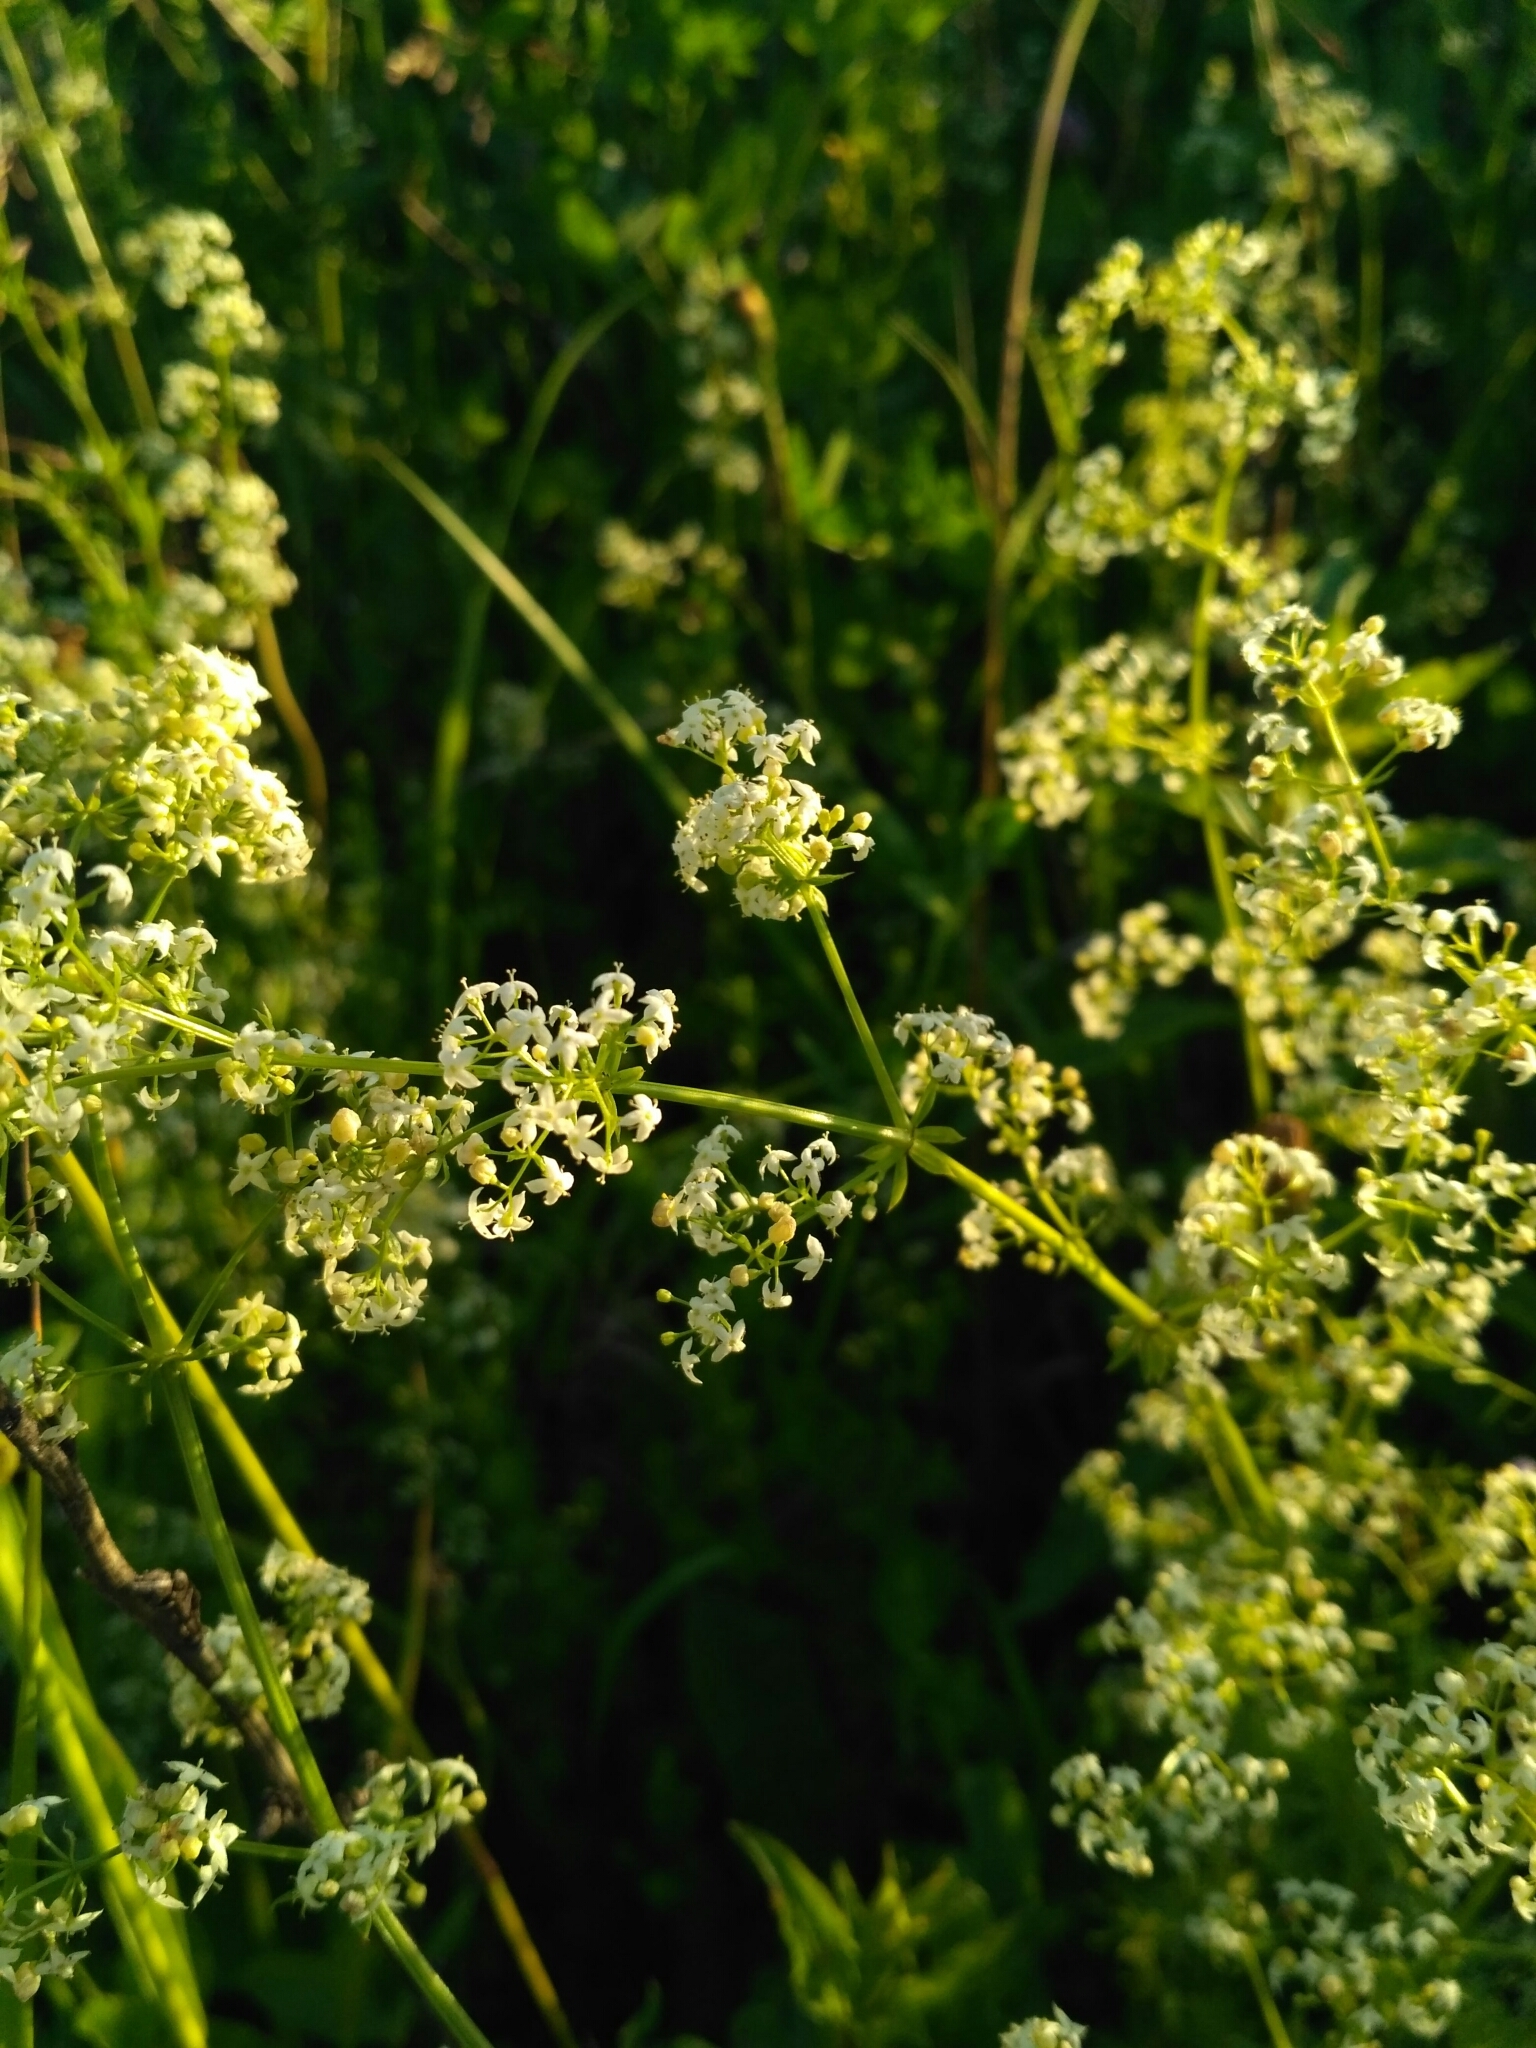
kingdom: Plantae
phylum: Tracheophyta
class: Magnoliopsida
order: Gentianales
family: Rubiaceae
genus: Galium
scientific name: Galium mollugo
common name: Hedge bedstraw
